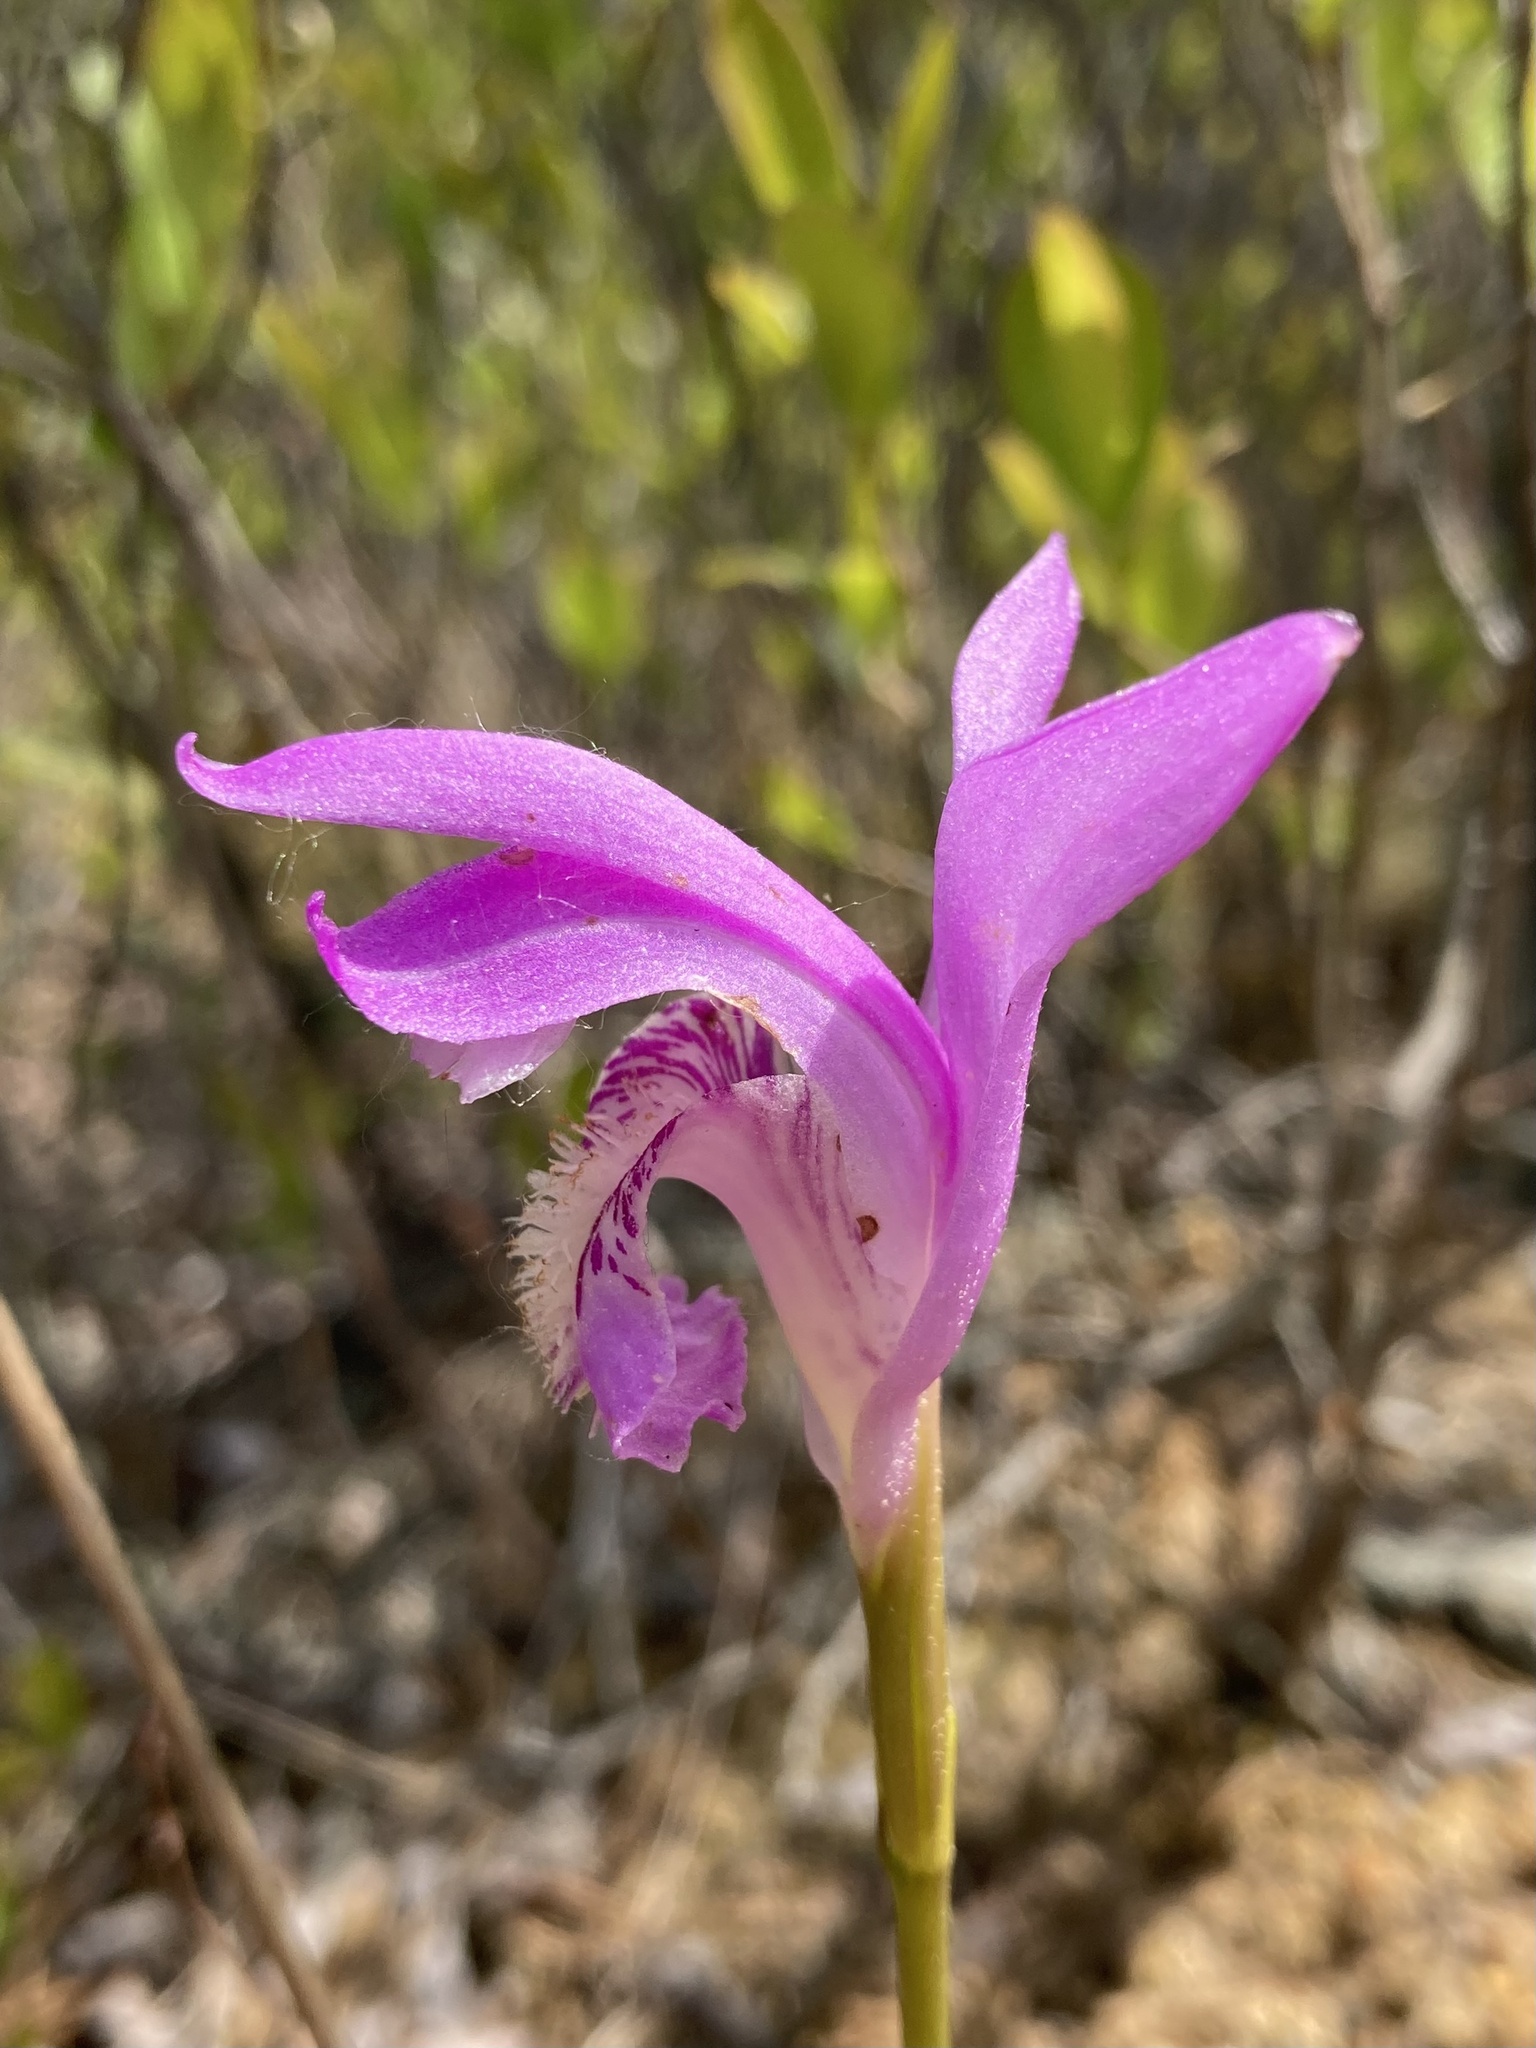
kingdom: Plantae
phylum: Tracheophyta
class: Liliopsida
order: Asparagales
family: Orchidaceae
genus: Arethusa
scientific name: Arethusa bulbosa
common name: Arethusa
